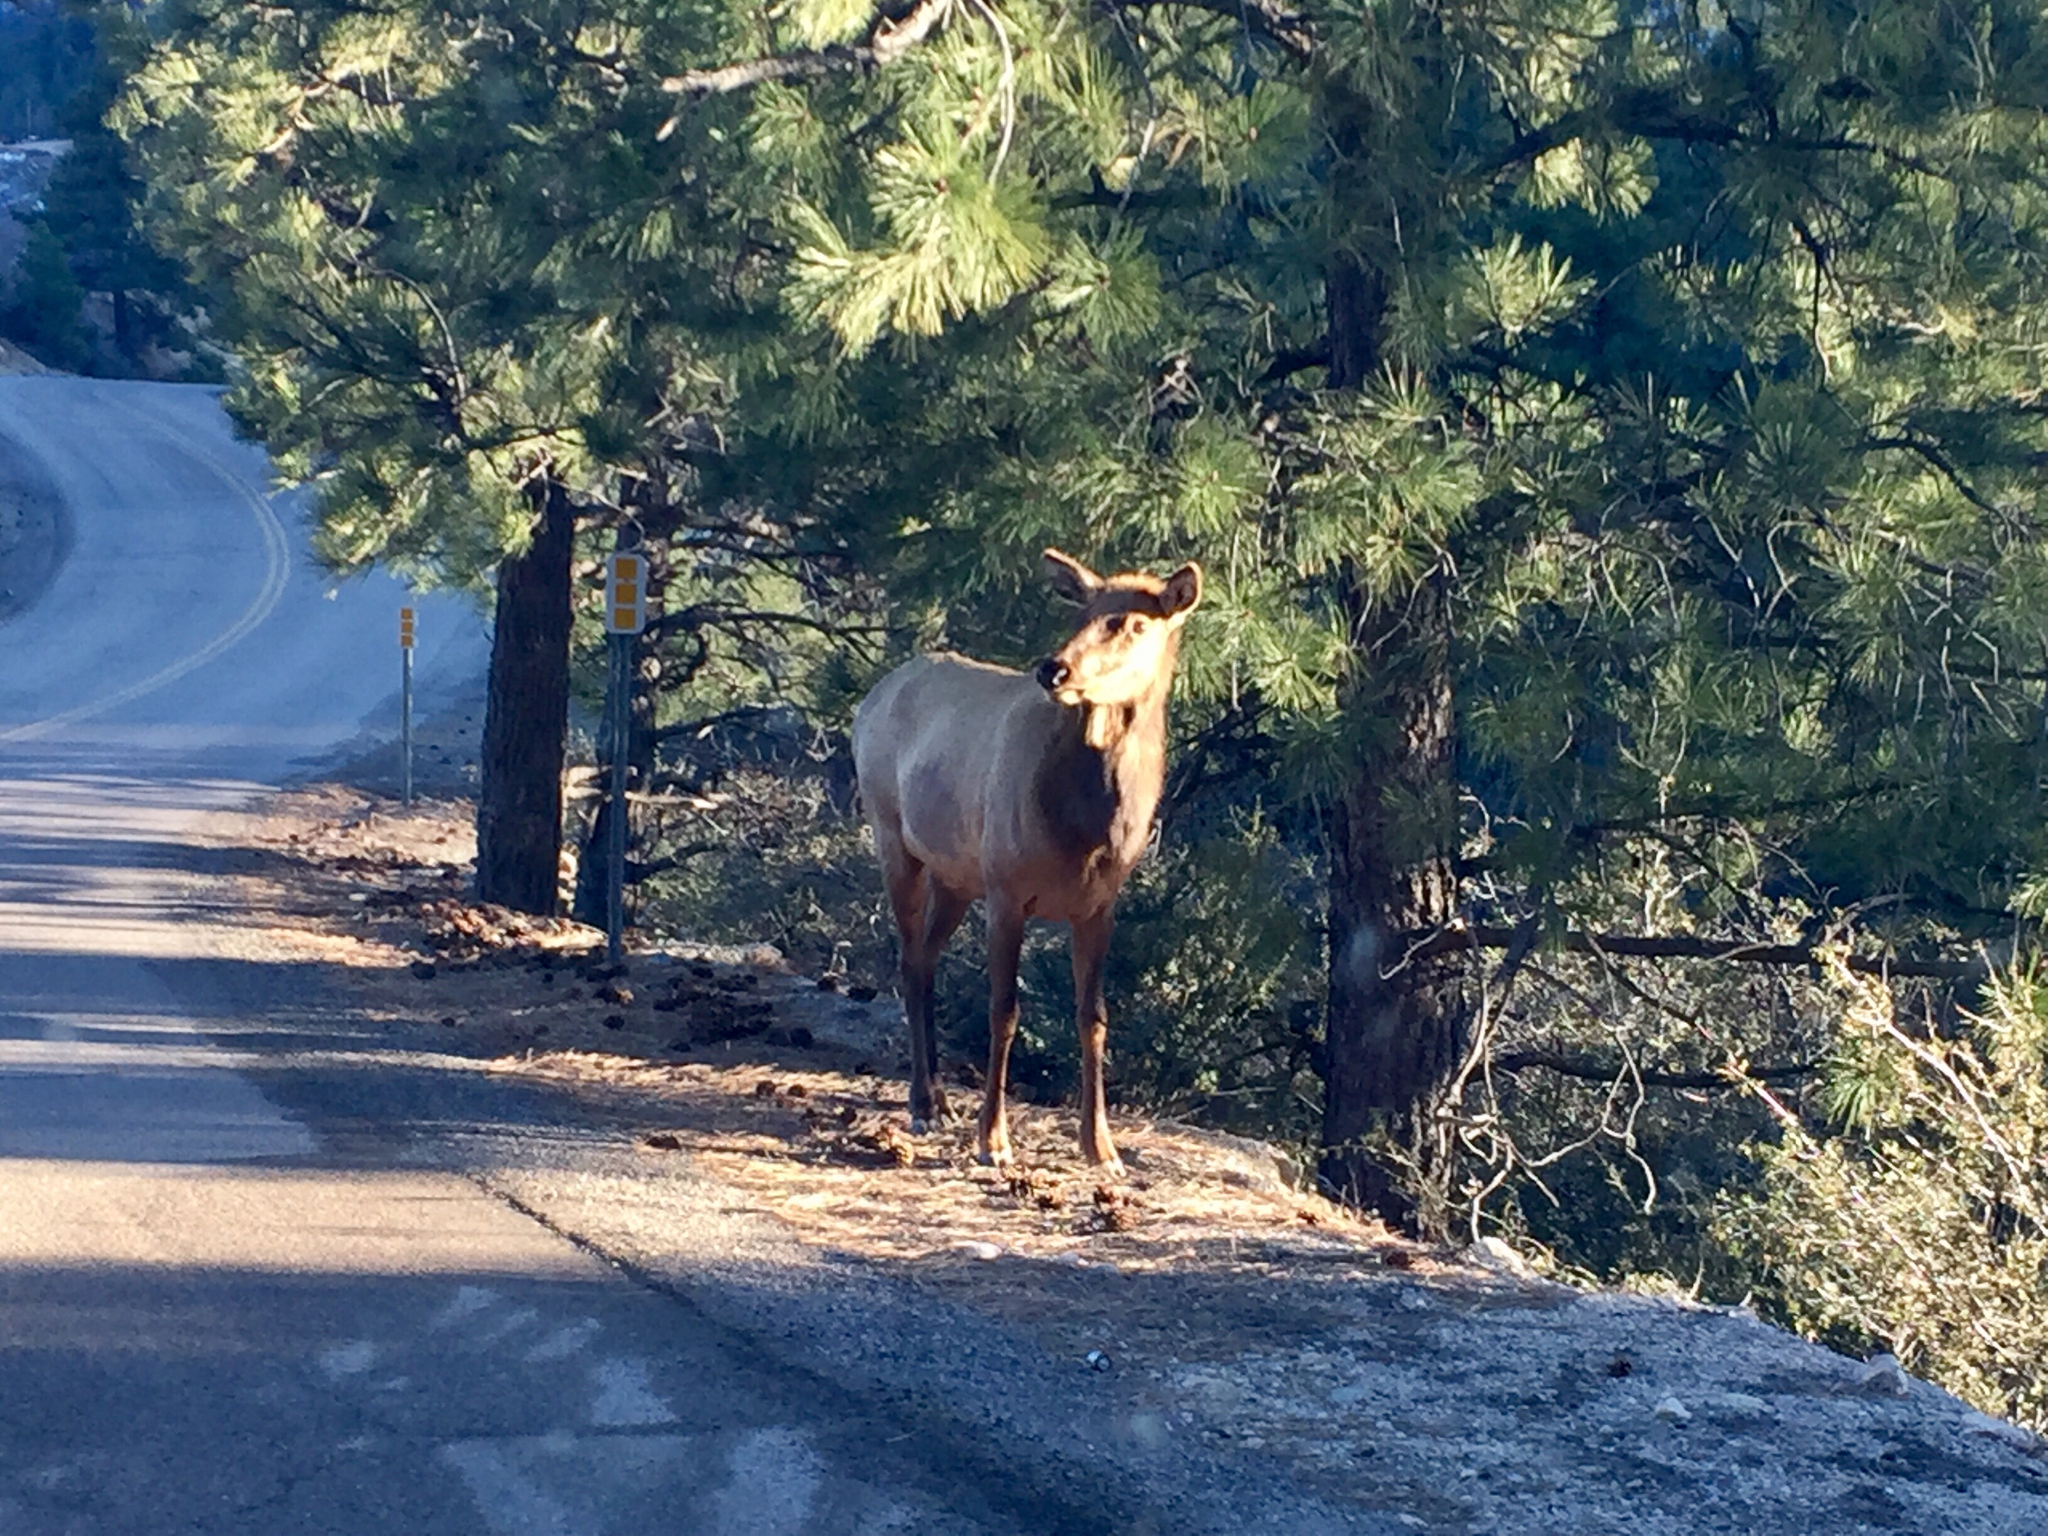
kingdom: Animalia
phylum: Chordata
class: Mammalia
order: Artiodactyla
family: Cervidae
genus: Cervus
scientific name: Cervus elaphus
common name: Red deer
